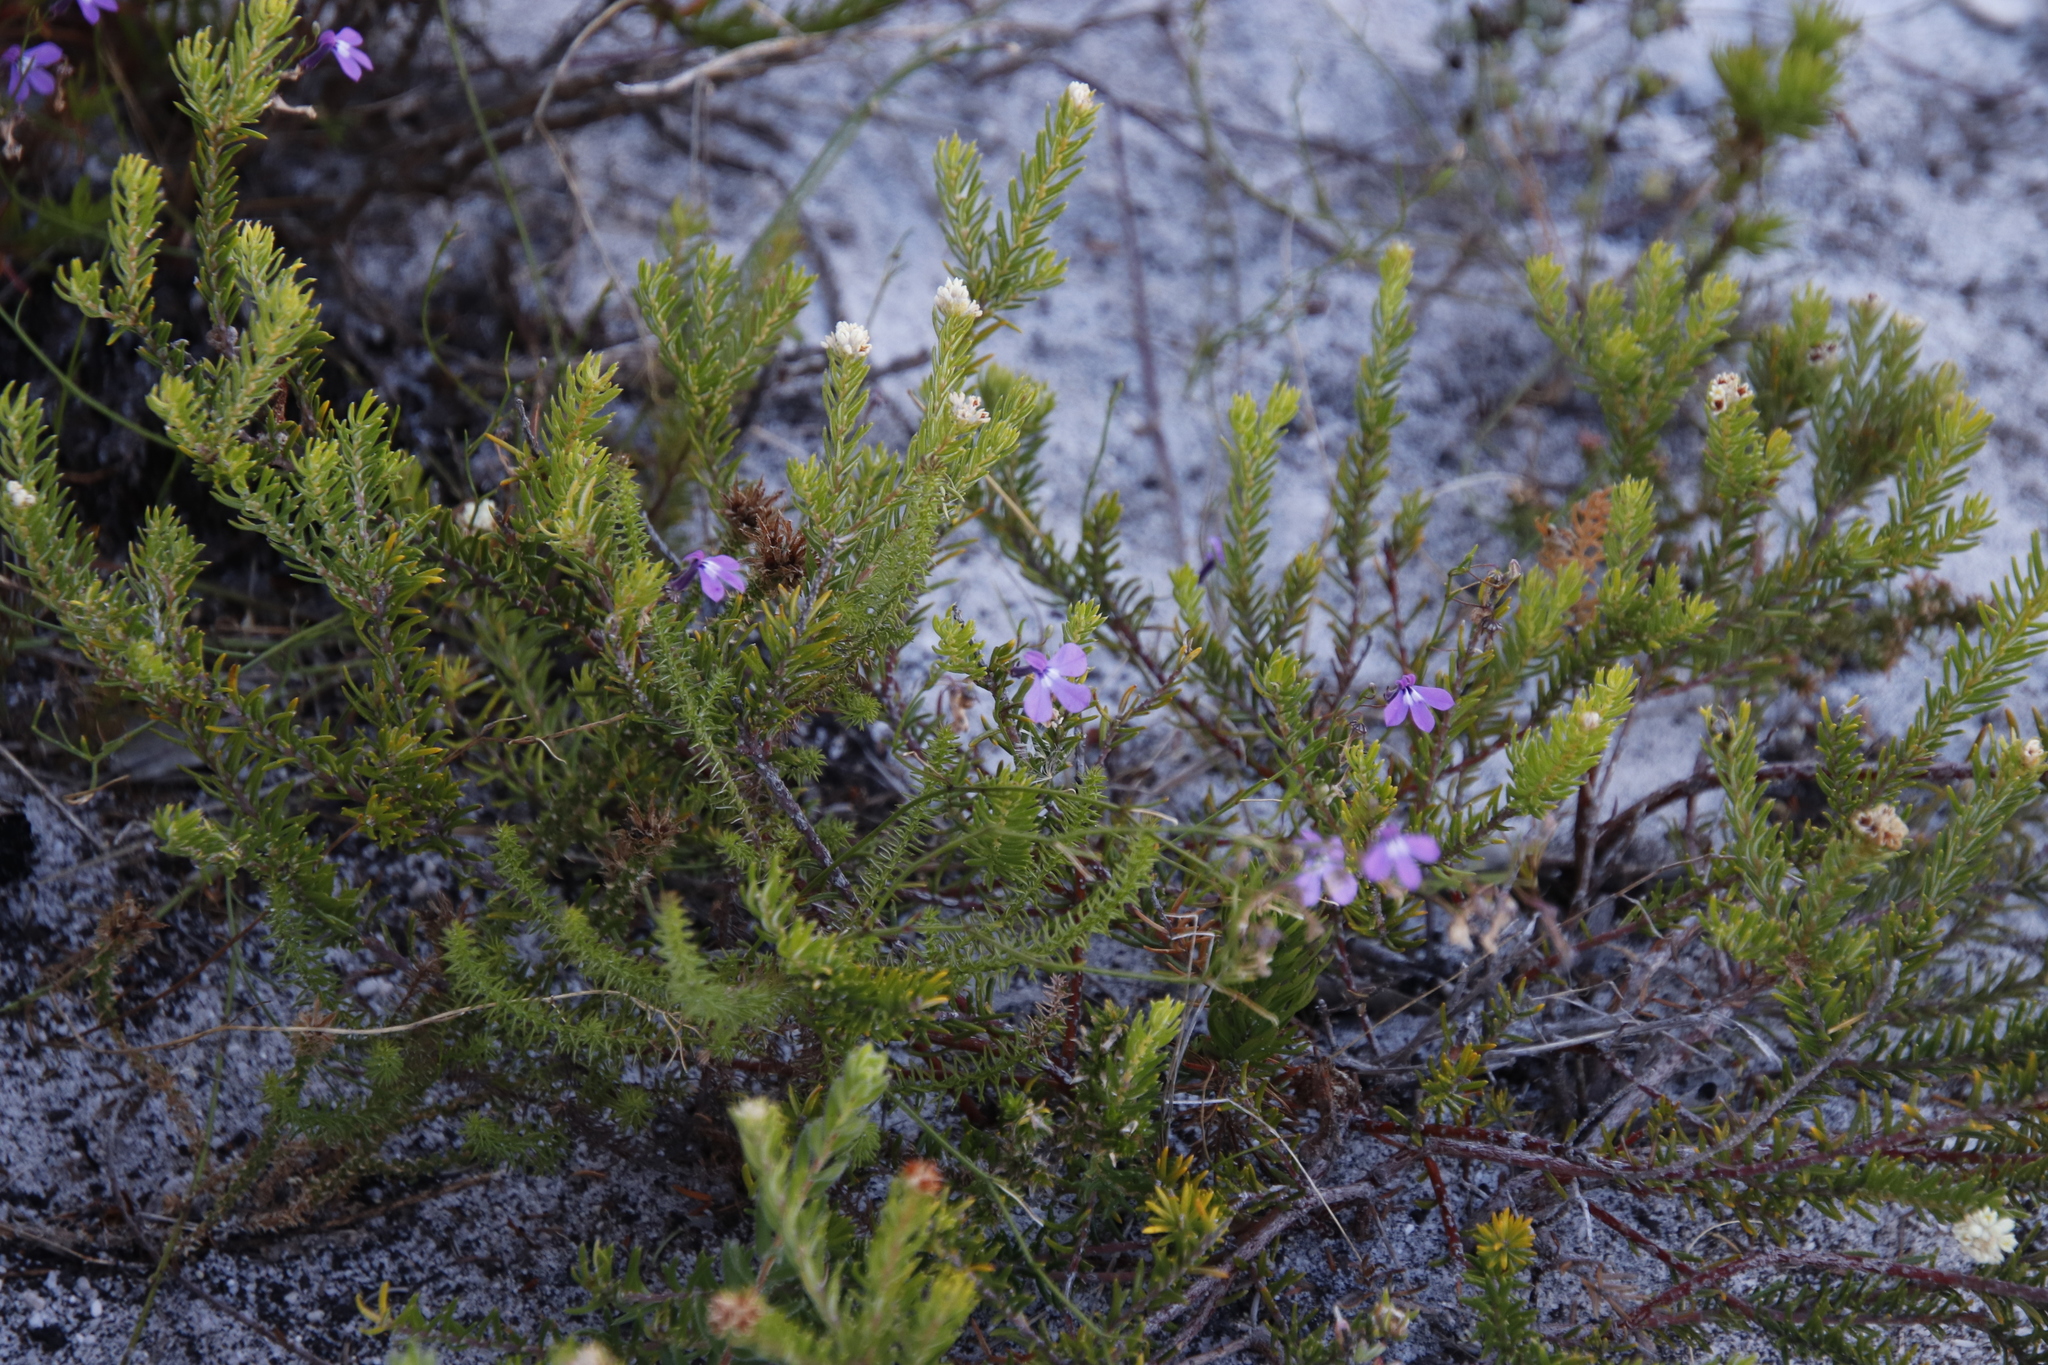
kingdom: Plantae
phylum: Tracheophyta
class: Magnoliopsida
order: Asterales
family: Campanulaceae
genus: Lobelia
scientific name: Lobelia setacea
